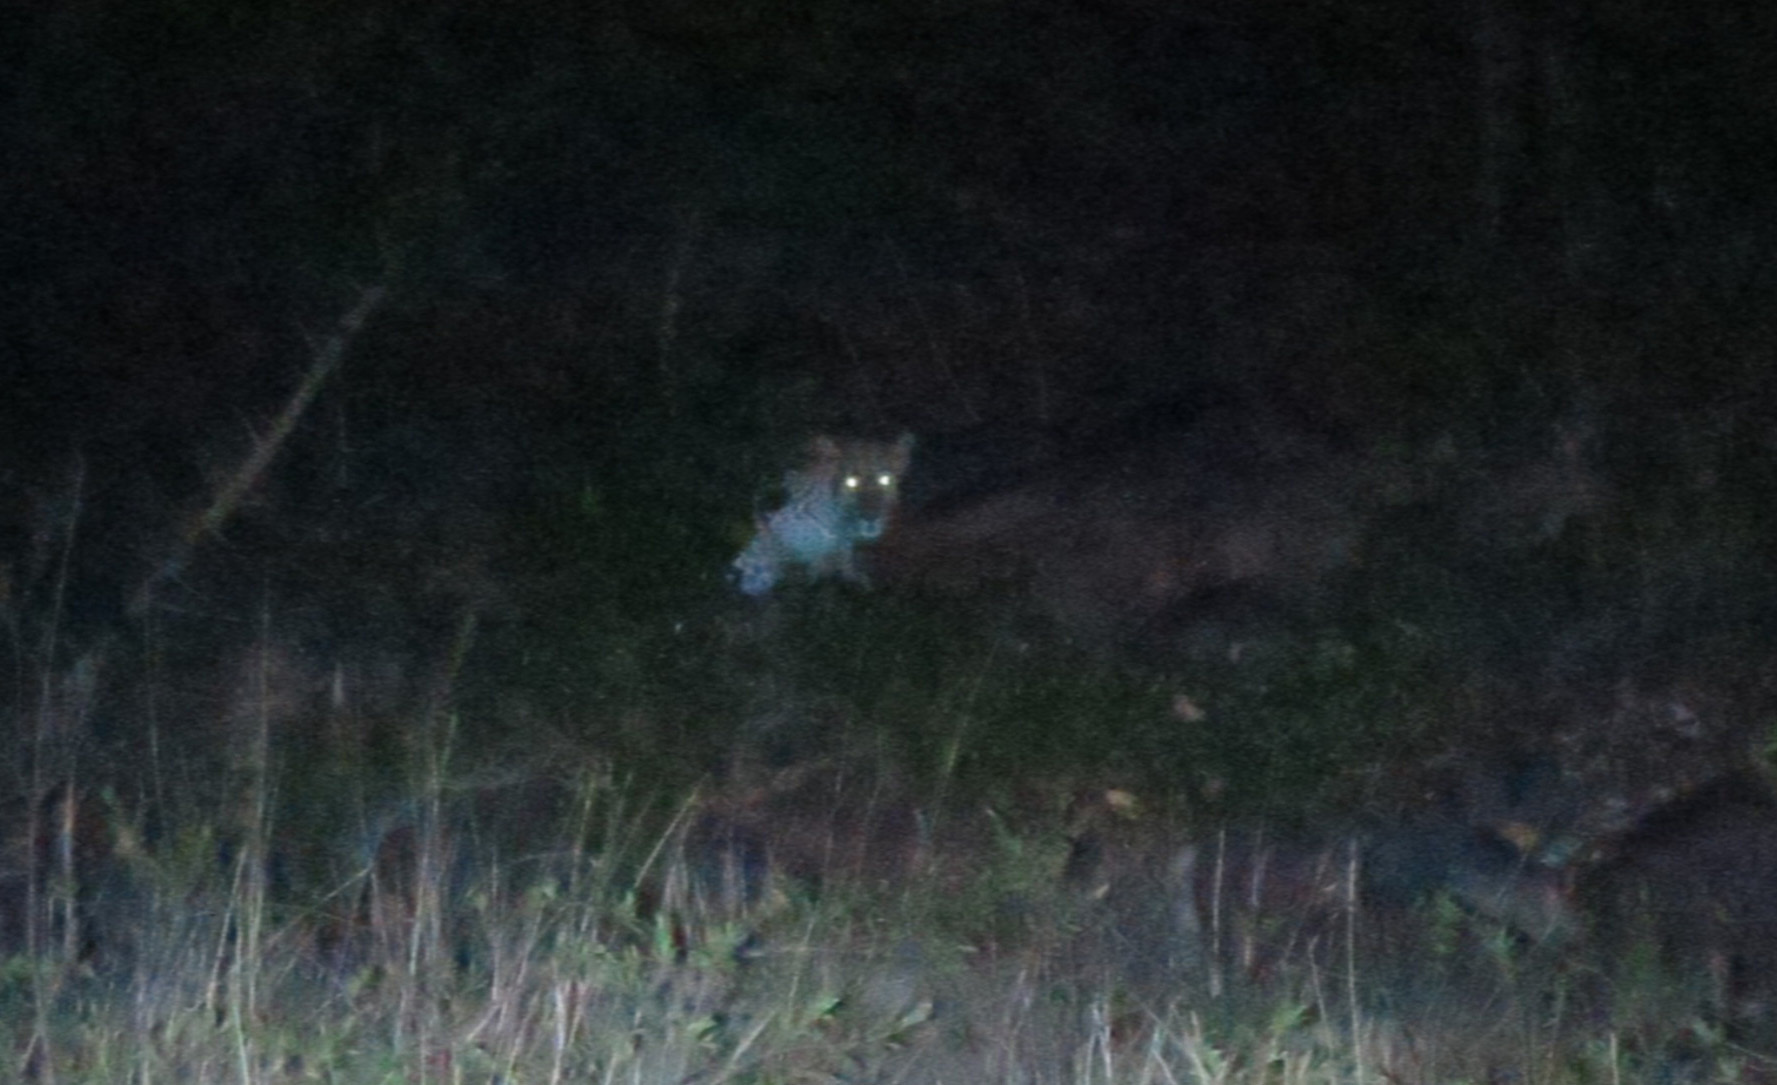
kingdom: Animalia
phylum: Chordata
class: Mammalia
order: Carnivora
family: Felidae
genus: Panthera
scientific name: Panthera pardus
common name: Leopard
